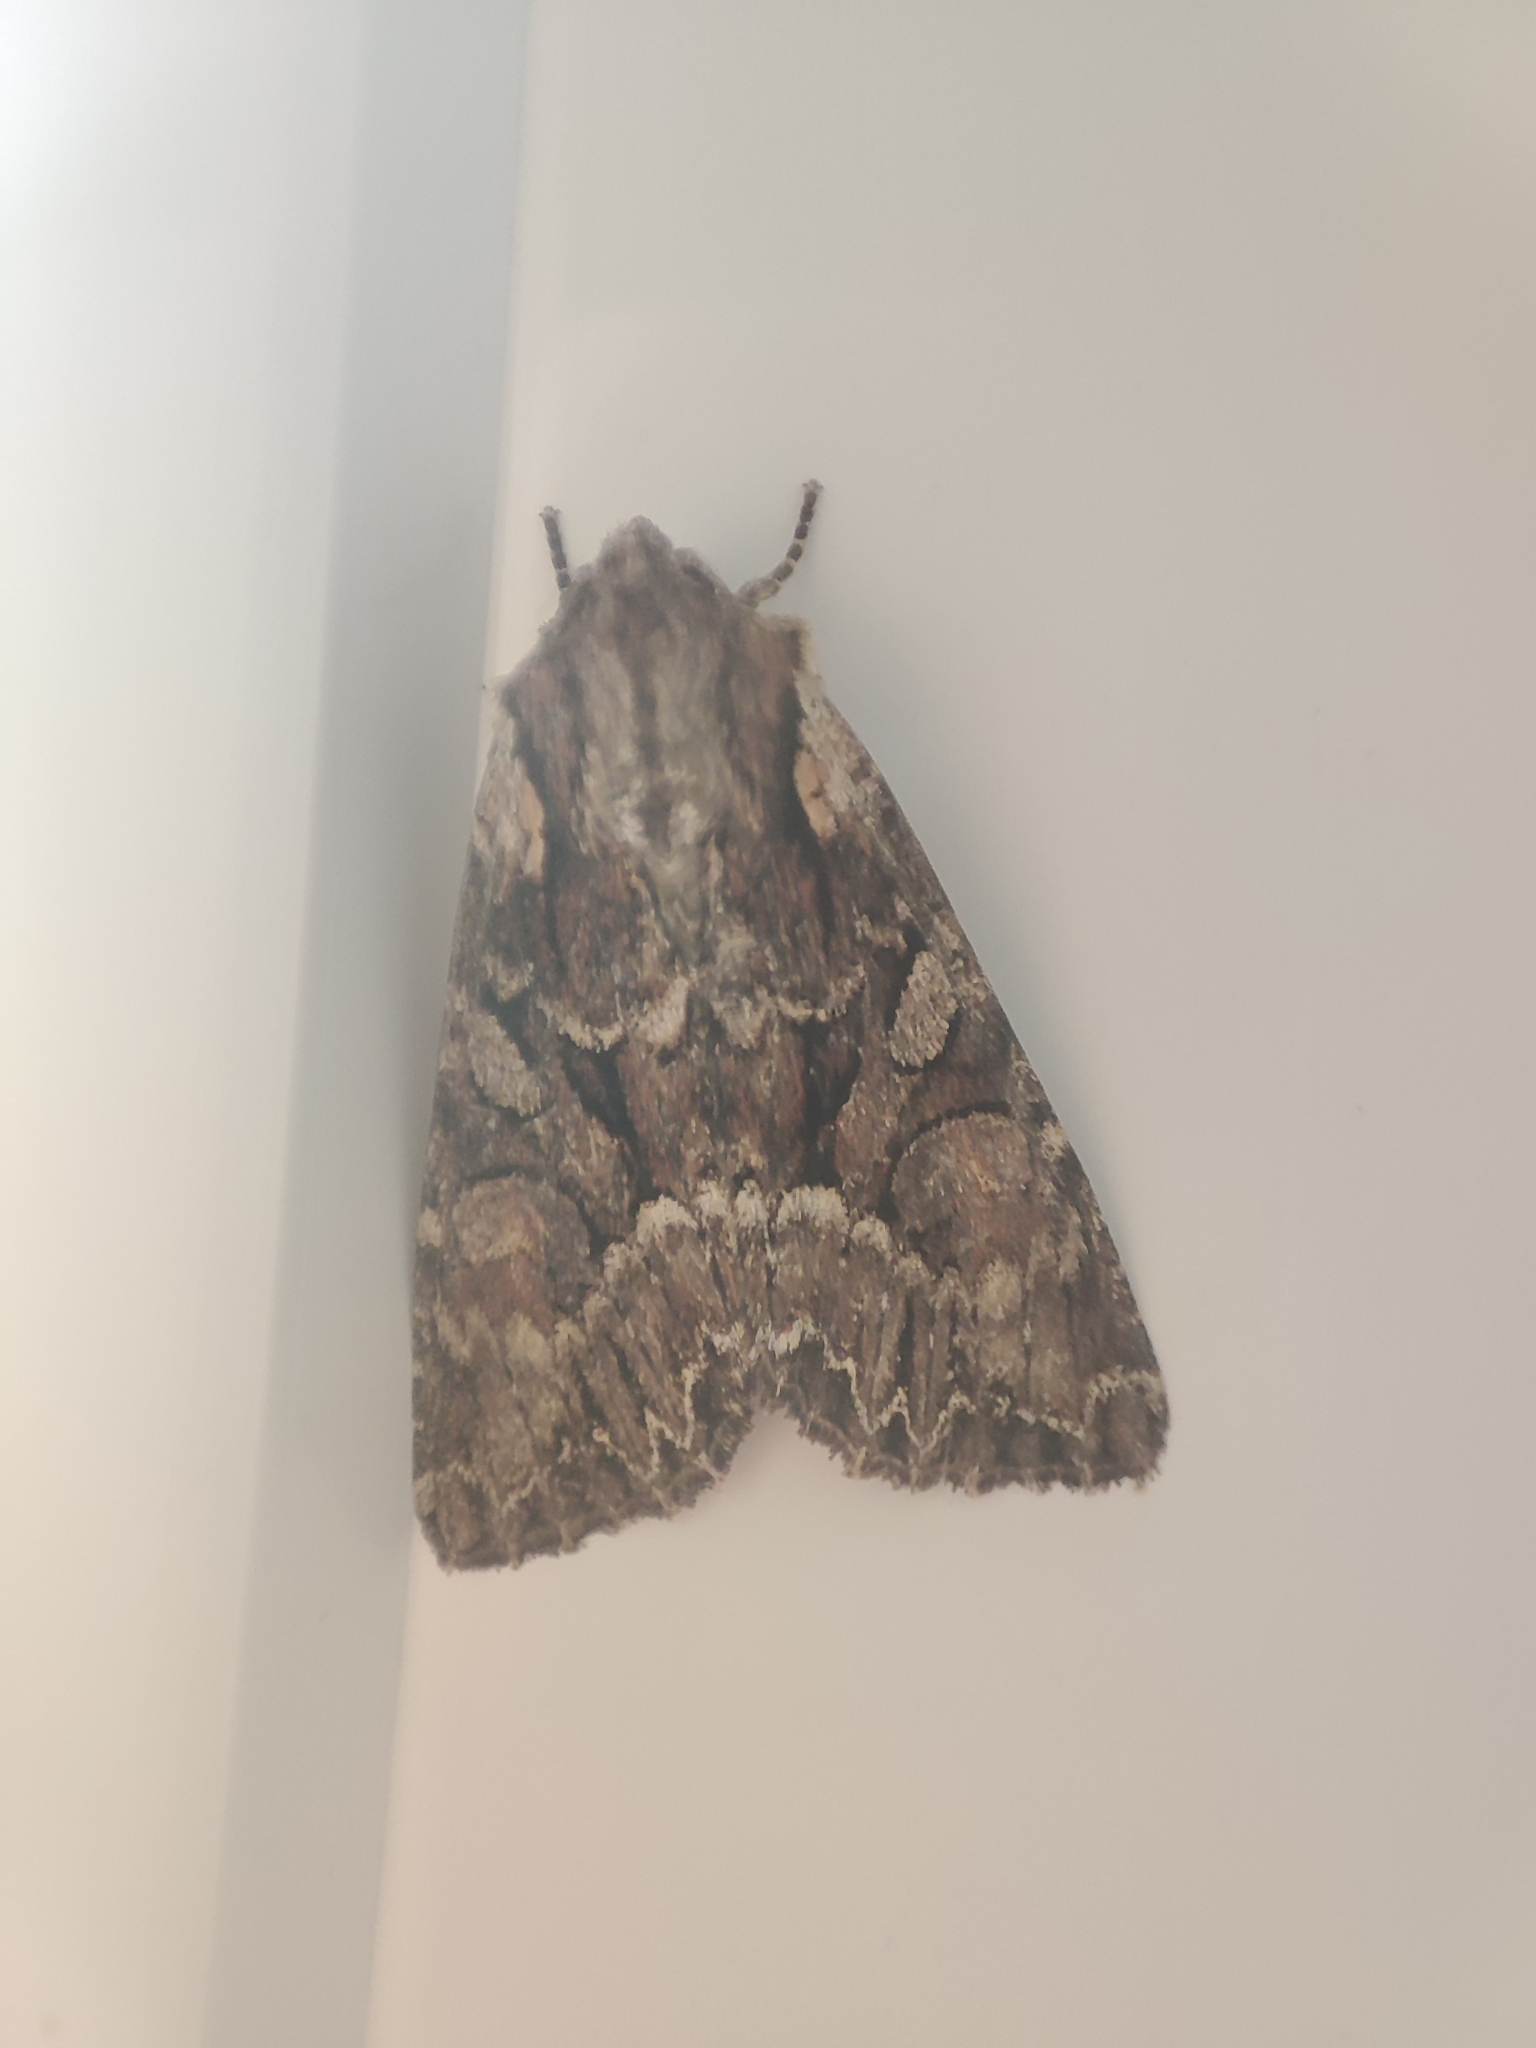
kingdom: Animalia
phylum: Arthropoda
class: Insecta
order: Lepidoptera
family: Noctuidae
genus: Lacanobia
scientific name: Lacanobia thalassina
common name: Pale-shouldered brocade
